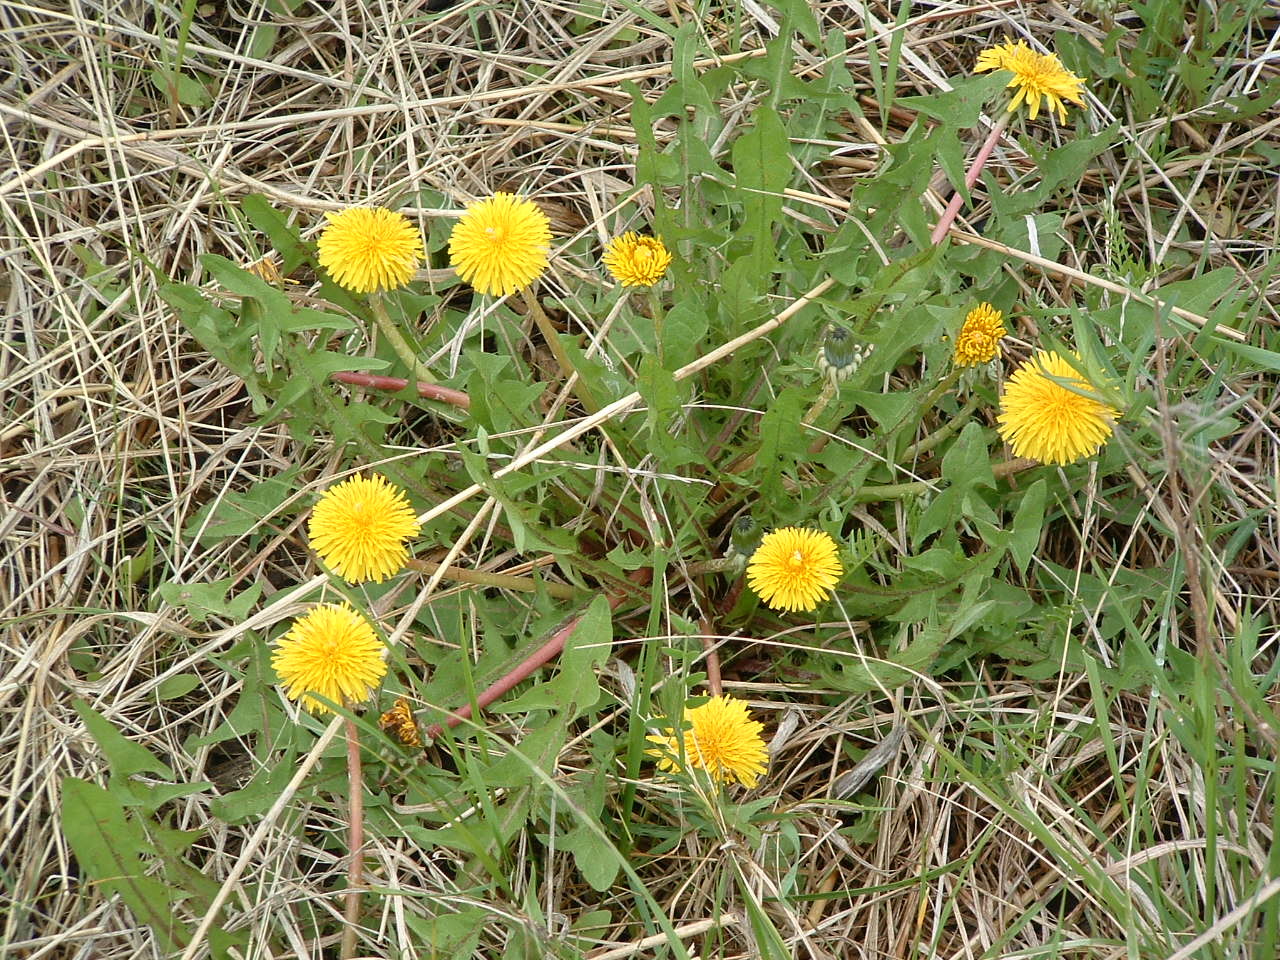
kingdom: Plantae
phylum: Tracheophyta
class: Magnoliopsida
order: Asterales
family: Asteraceae
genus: Taraxacum
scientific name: Taraxacum officinale
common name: Common dandelion
